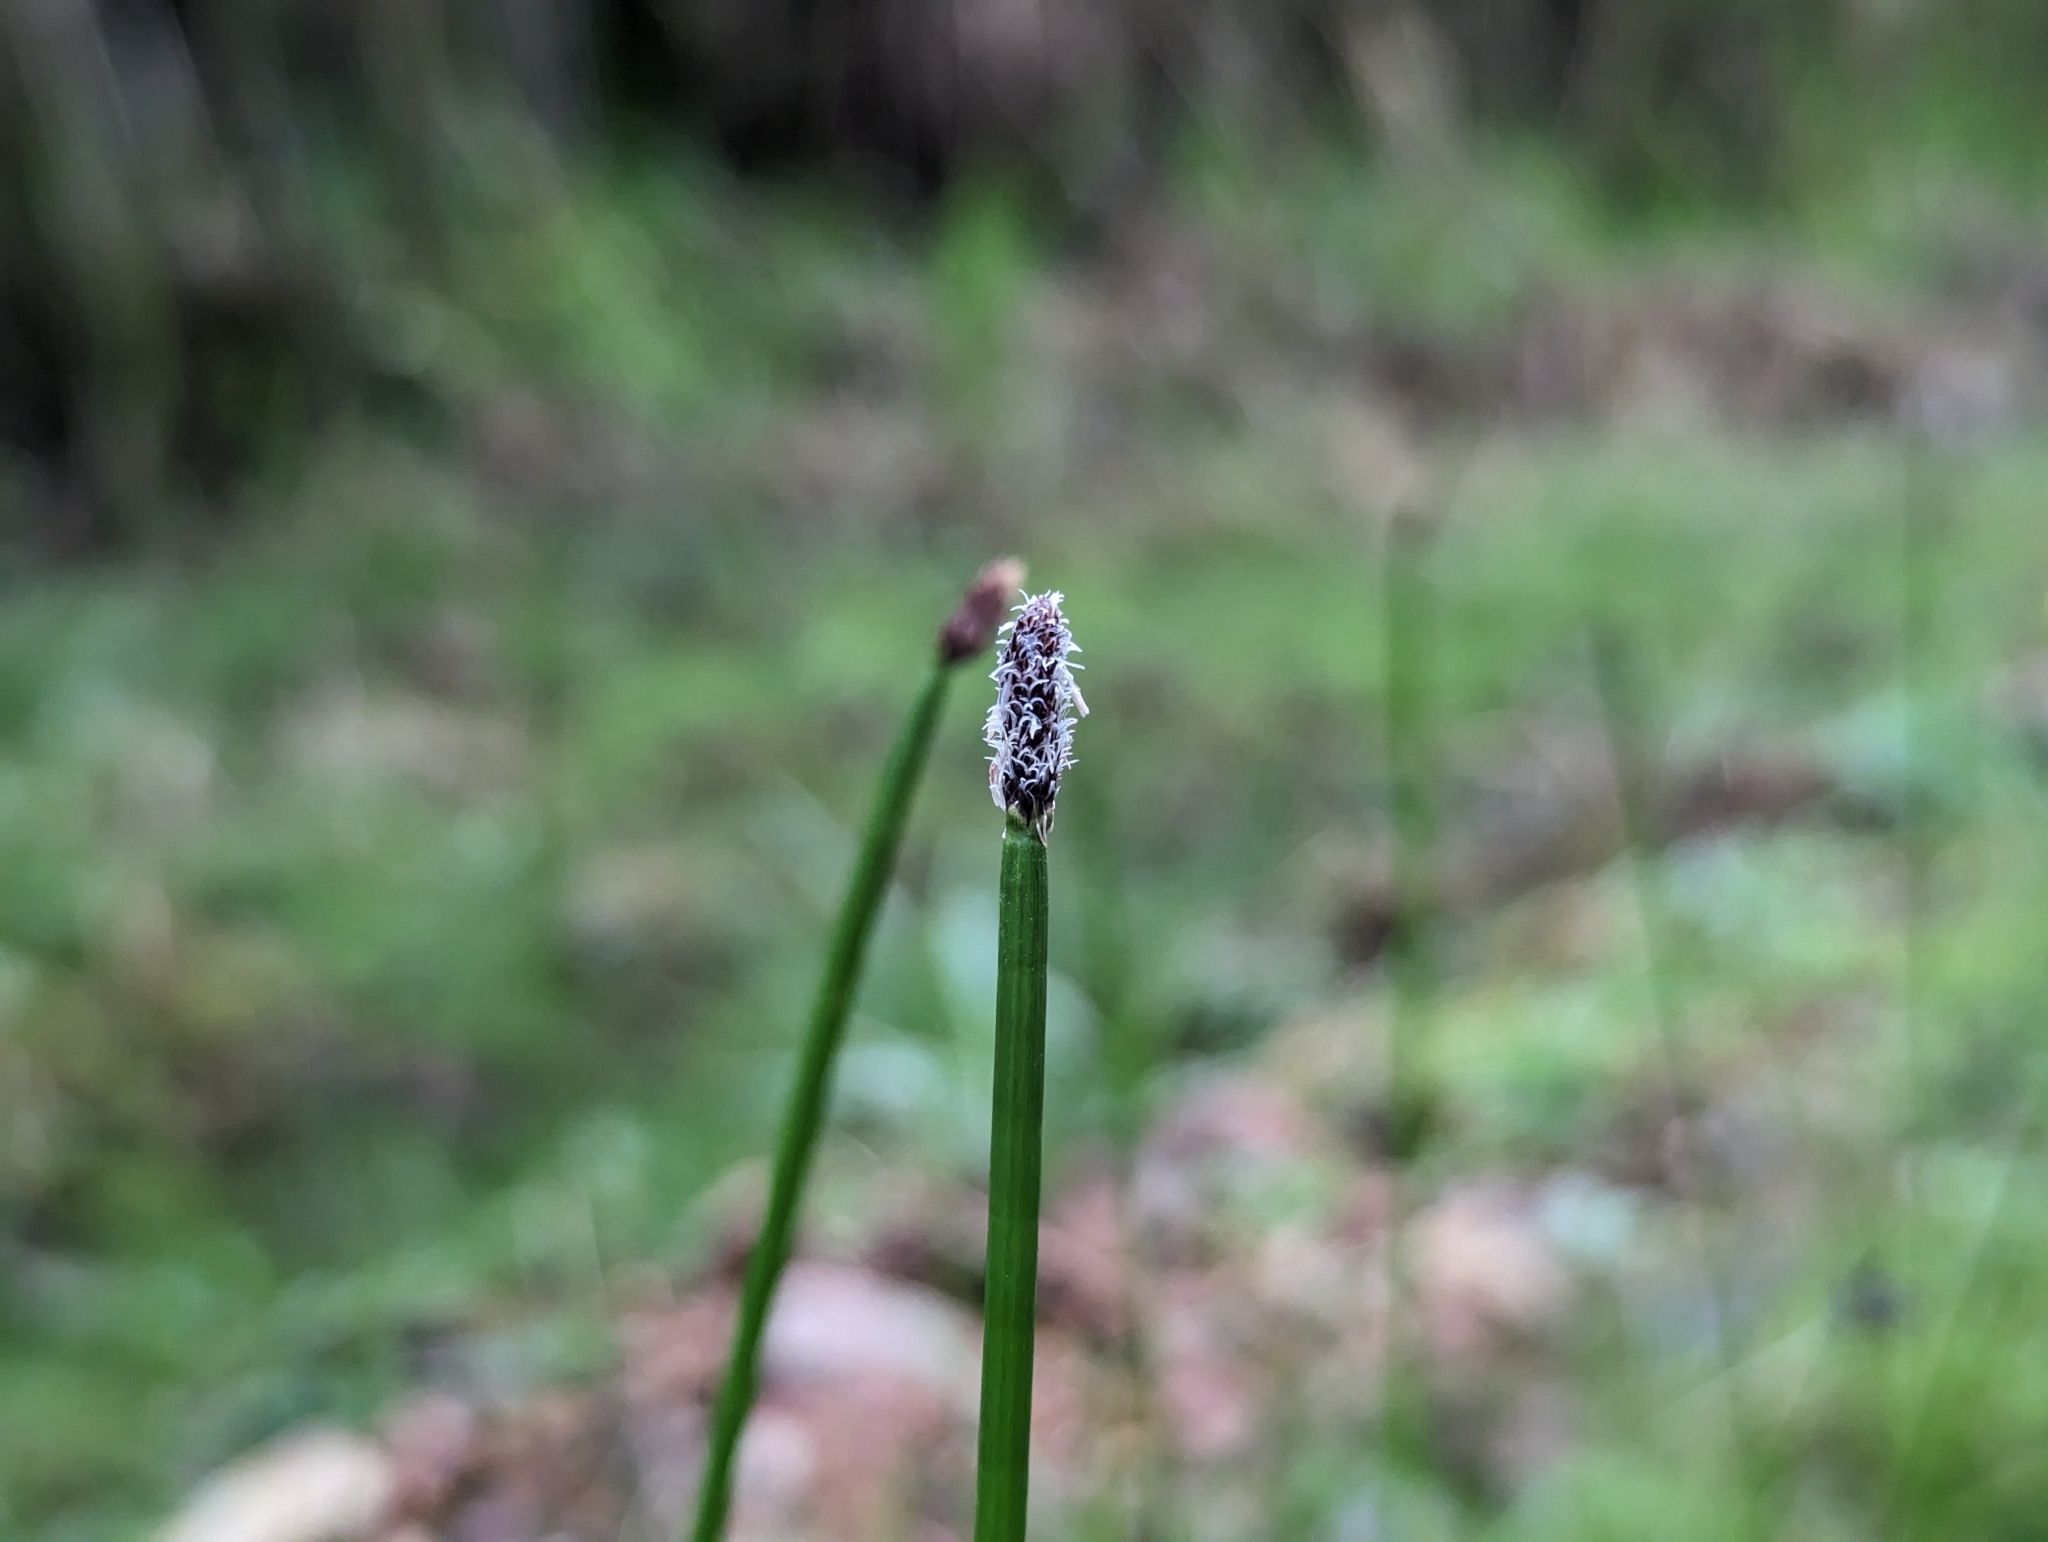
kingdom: Plantae
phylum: Tracheophyta
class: Liliopsida
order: Poales
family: Cyperaceae
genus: Eleocharis
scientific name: Eleocharis elegans
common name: Elegant spike-rush
